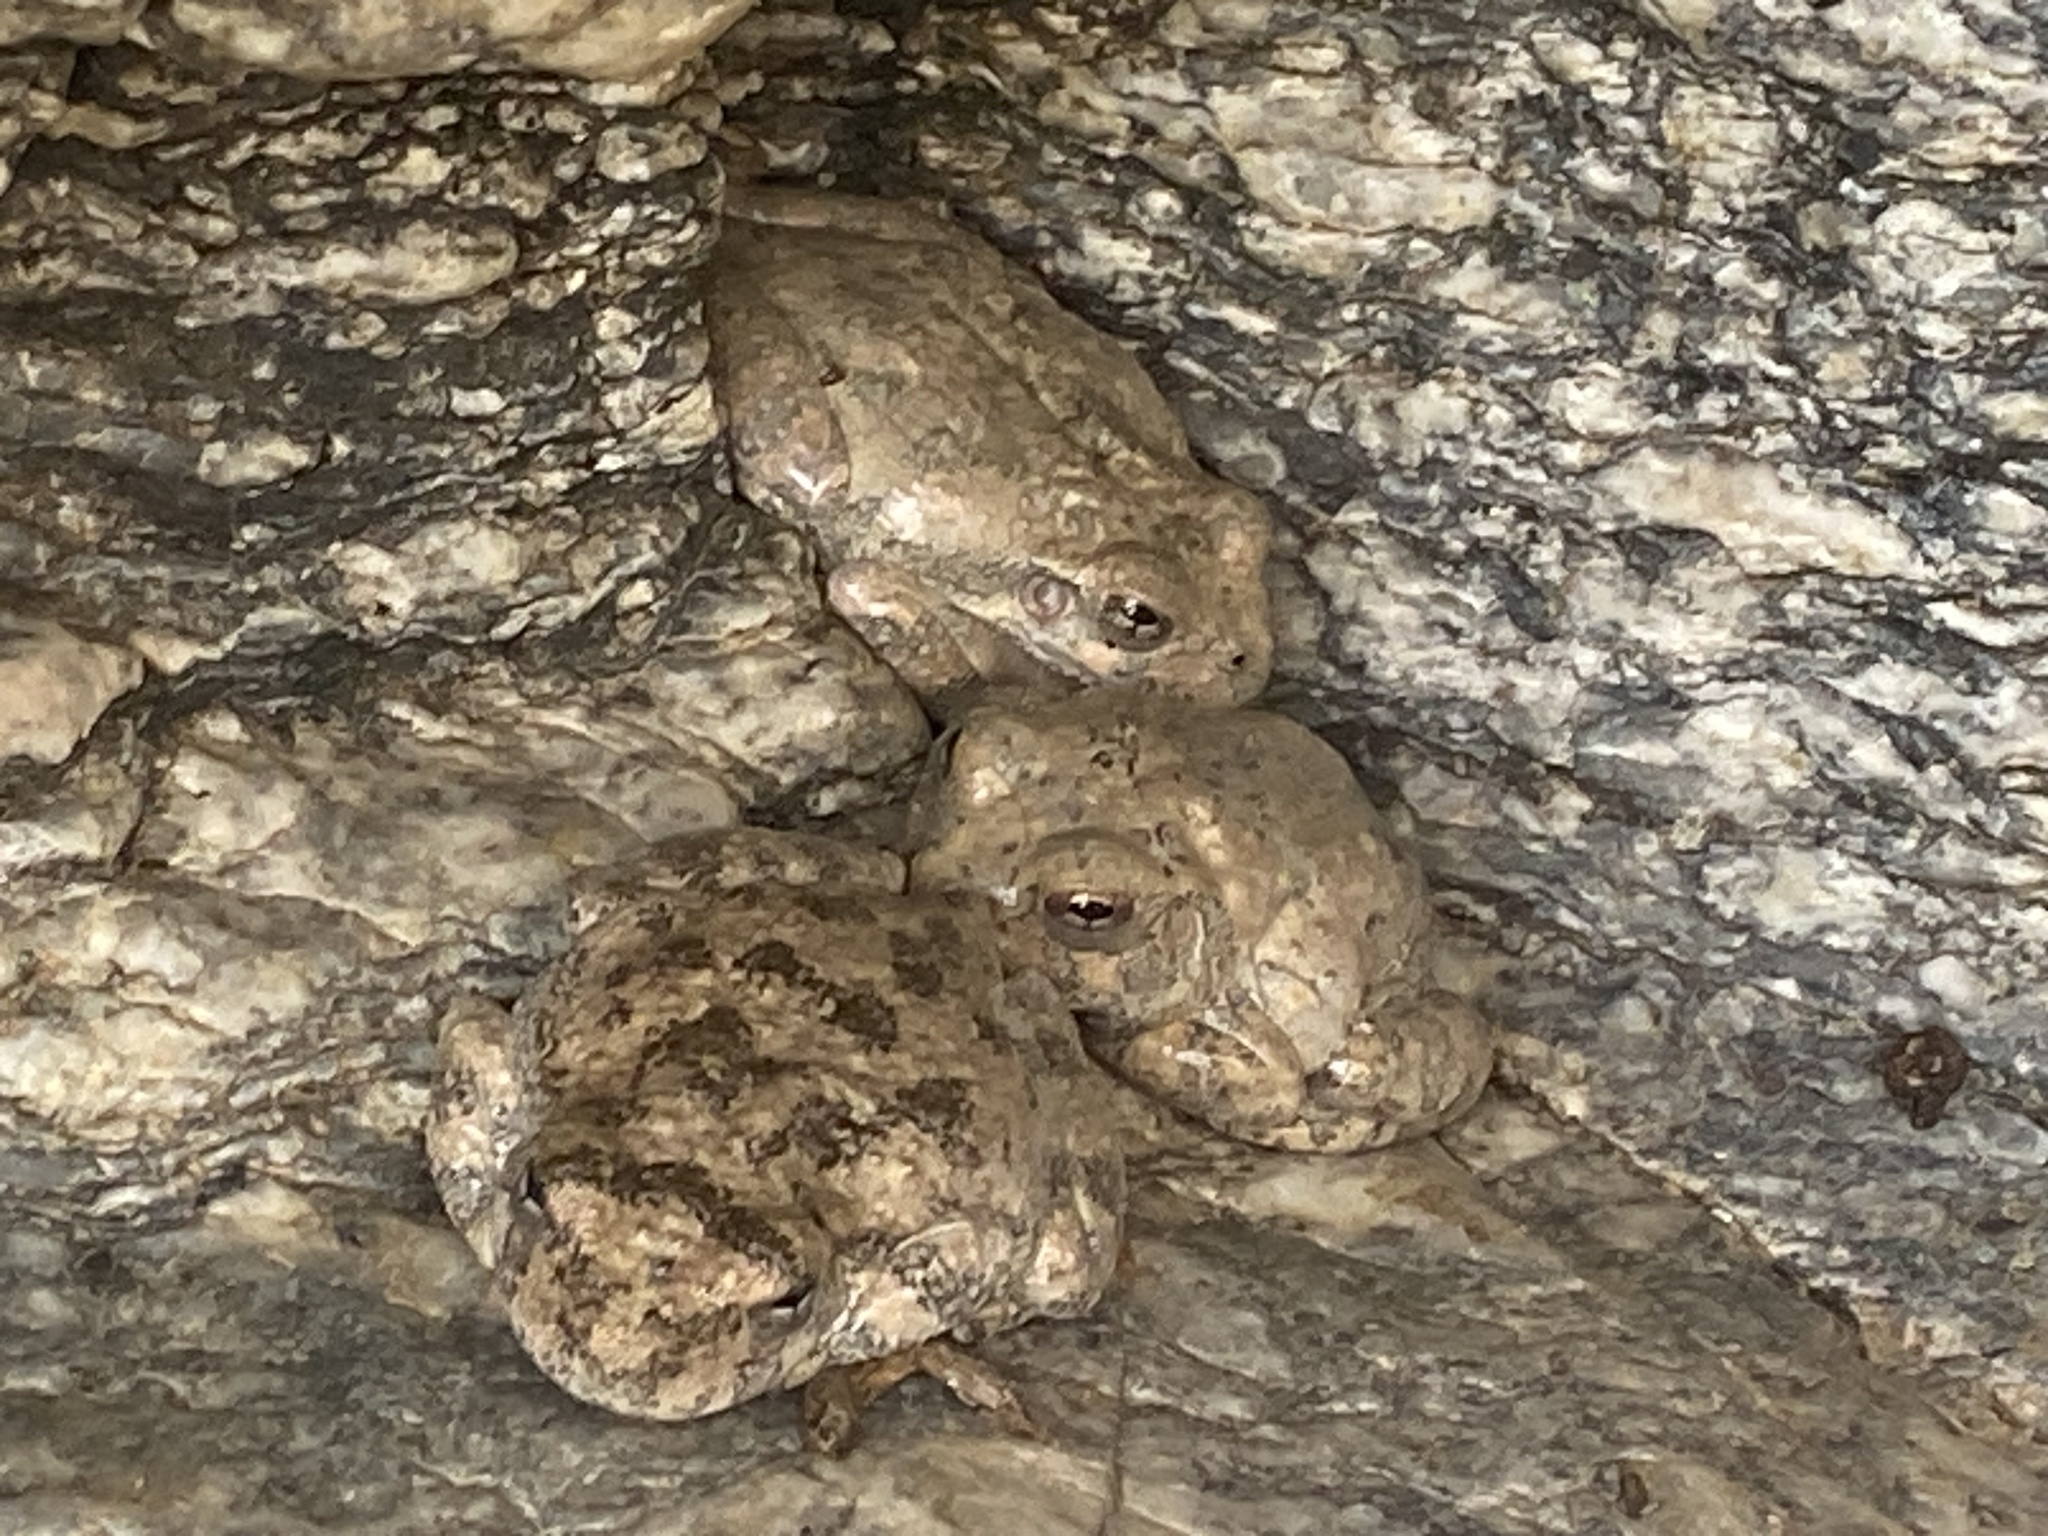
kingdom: Animalia
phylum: Chordata
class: Amphibia
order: Anura
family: Hylidae
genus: Dryophytes
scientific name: Dryophytes arenicolor
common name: Canyon treefrog
